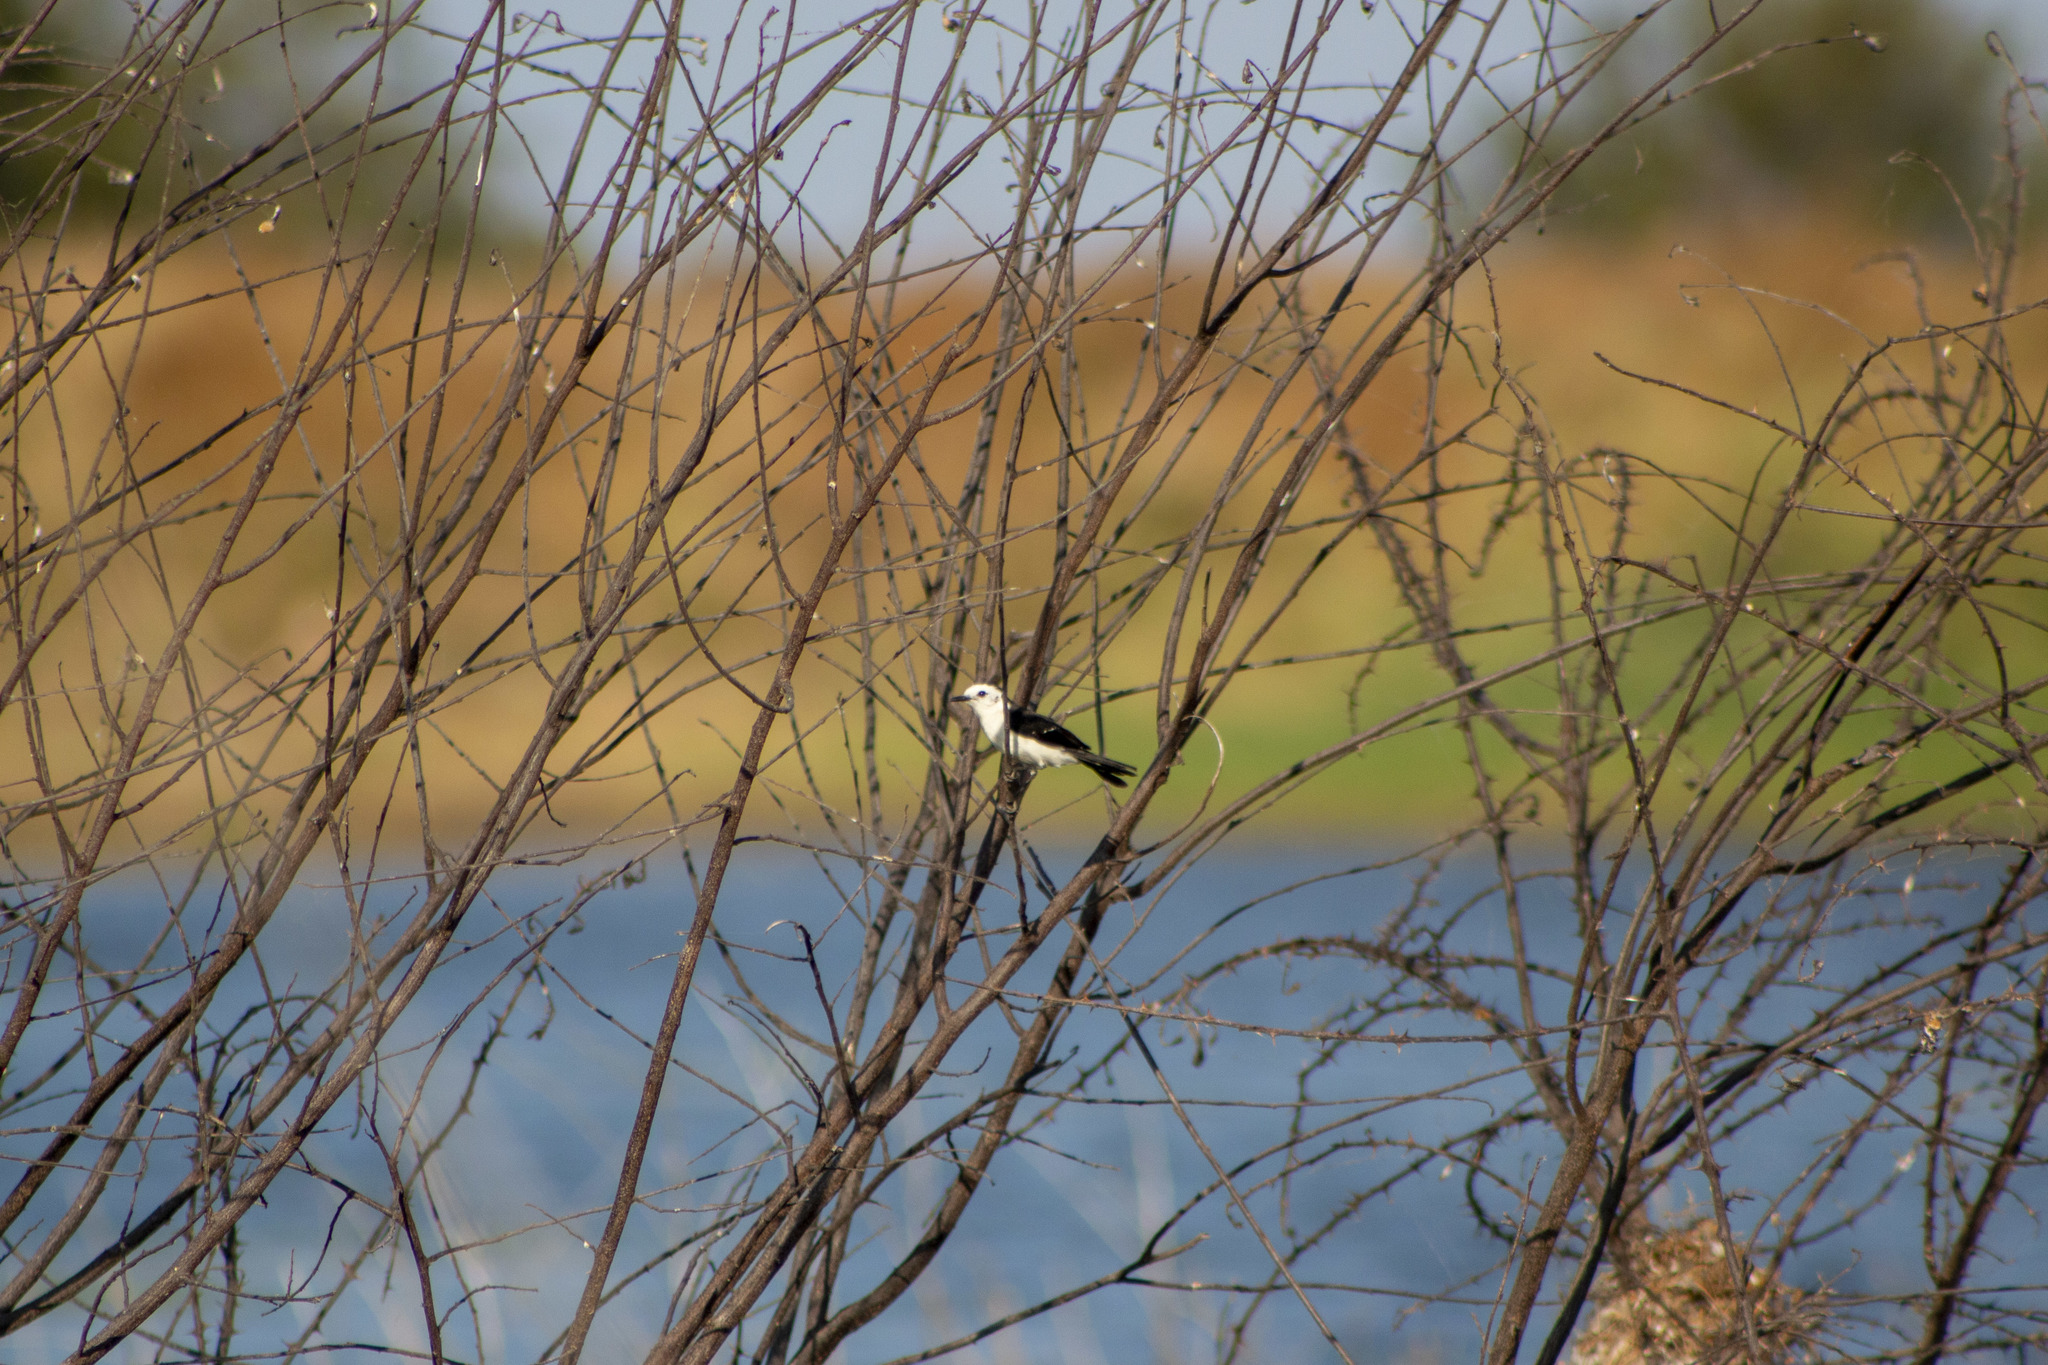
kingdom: Animalia
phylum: Chordata
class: Aves
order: Passeriformes
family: Tyrannidae
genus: Fluvicola
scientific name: Fluvicola pica
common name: Pied water-tyrant
